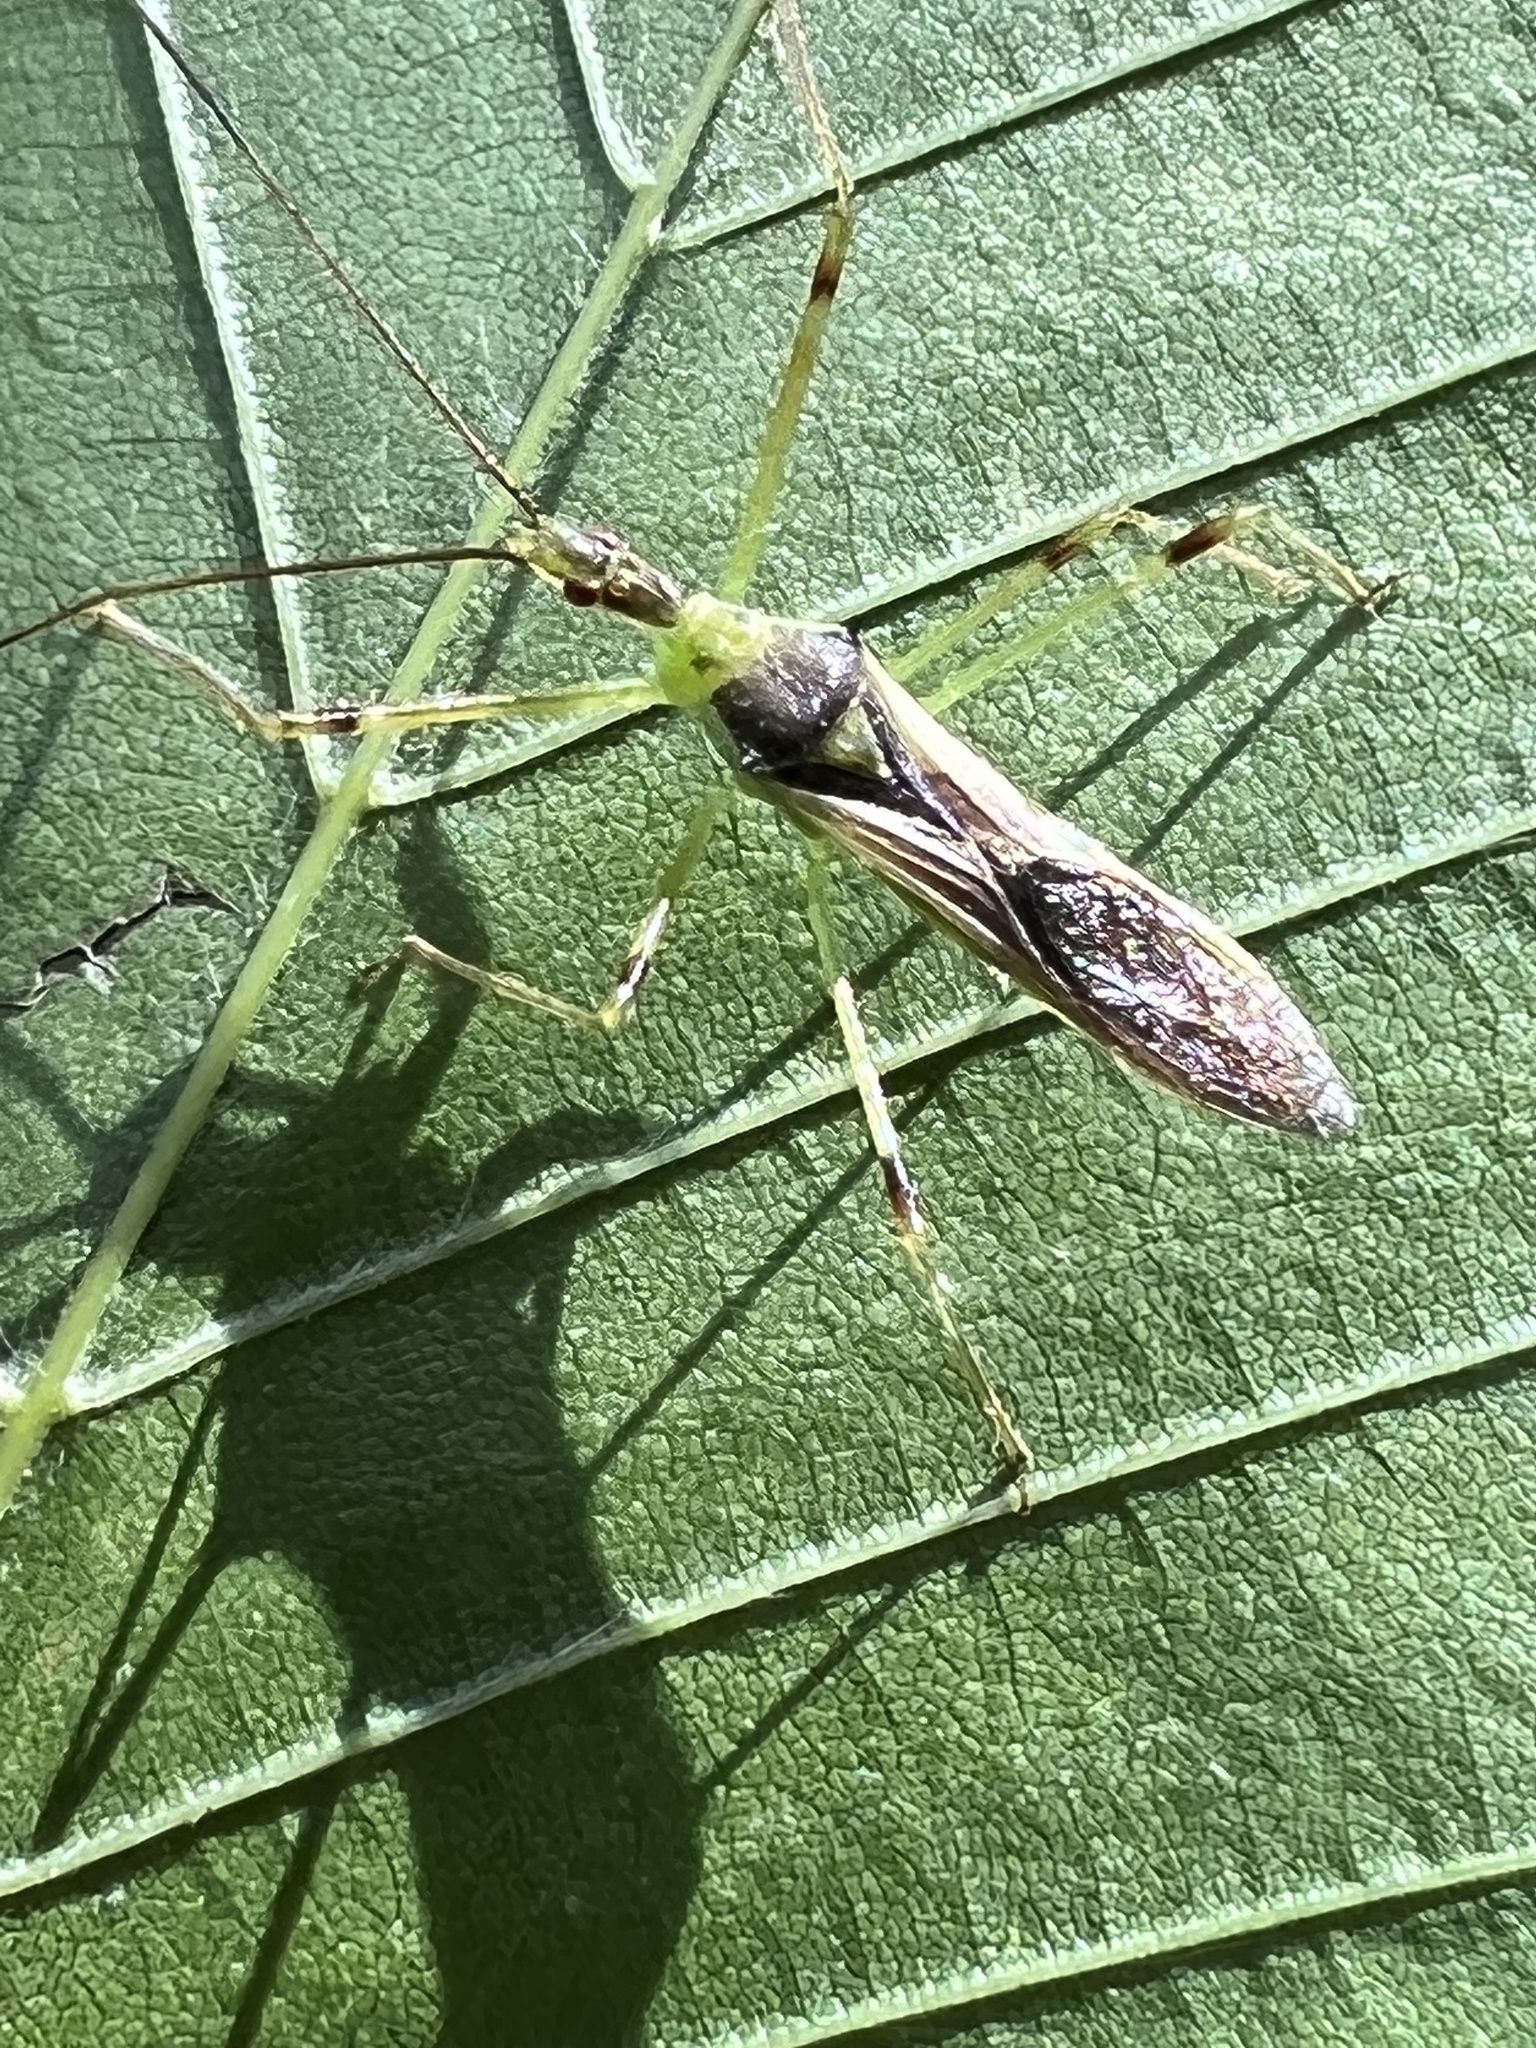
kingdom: Animalia
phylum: Arthropoda
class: Insecta
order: Hemiptera
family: Reduviidae
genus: Zelus
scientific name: Zelus luridus
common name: Pale green assassin bug
